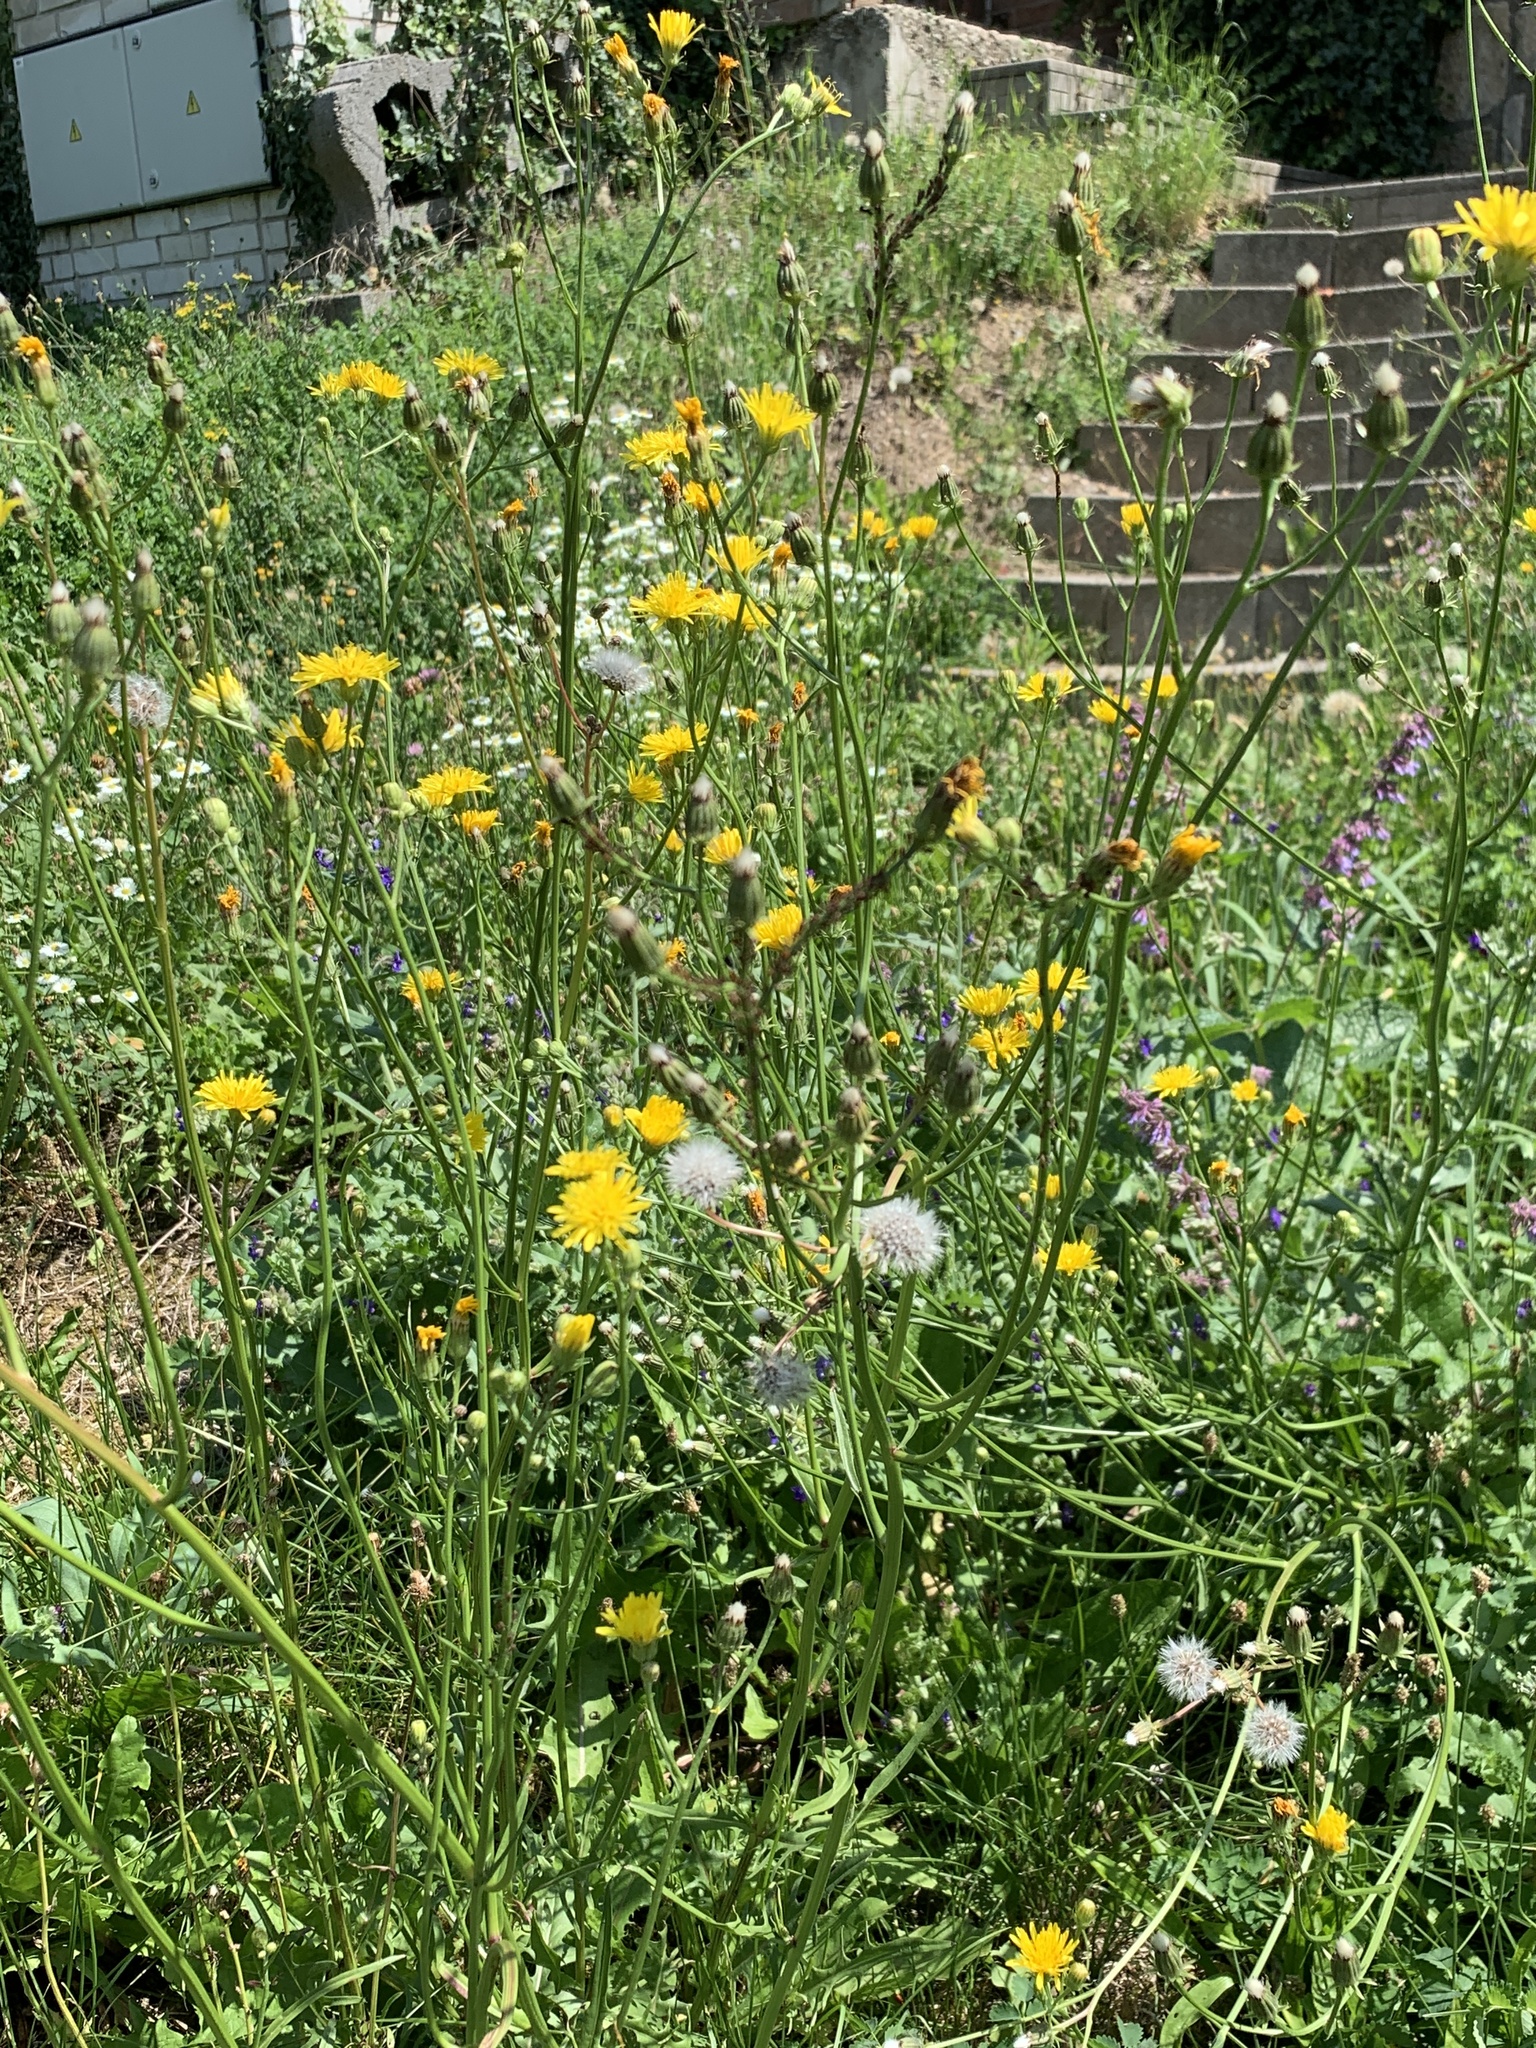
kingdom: Plantae
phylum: Tracheophyta
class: Magnoliopsida
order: Asterales
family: Asteraceae
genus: Crepis
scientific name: Crepis biennis
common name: Rough hawk's-beard
